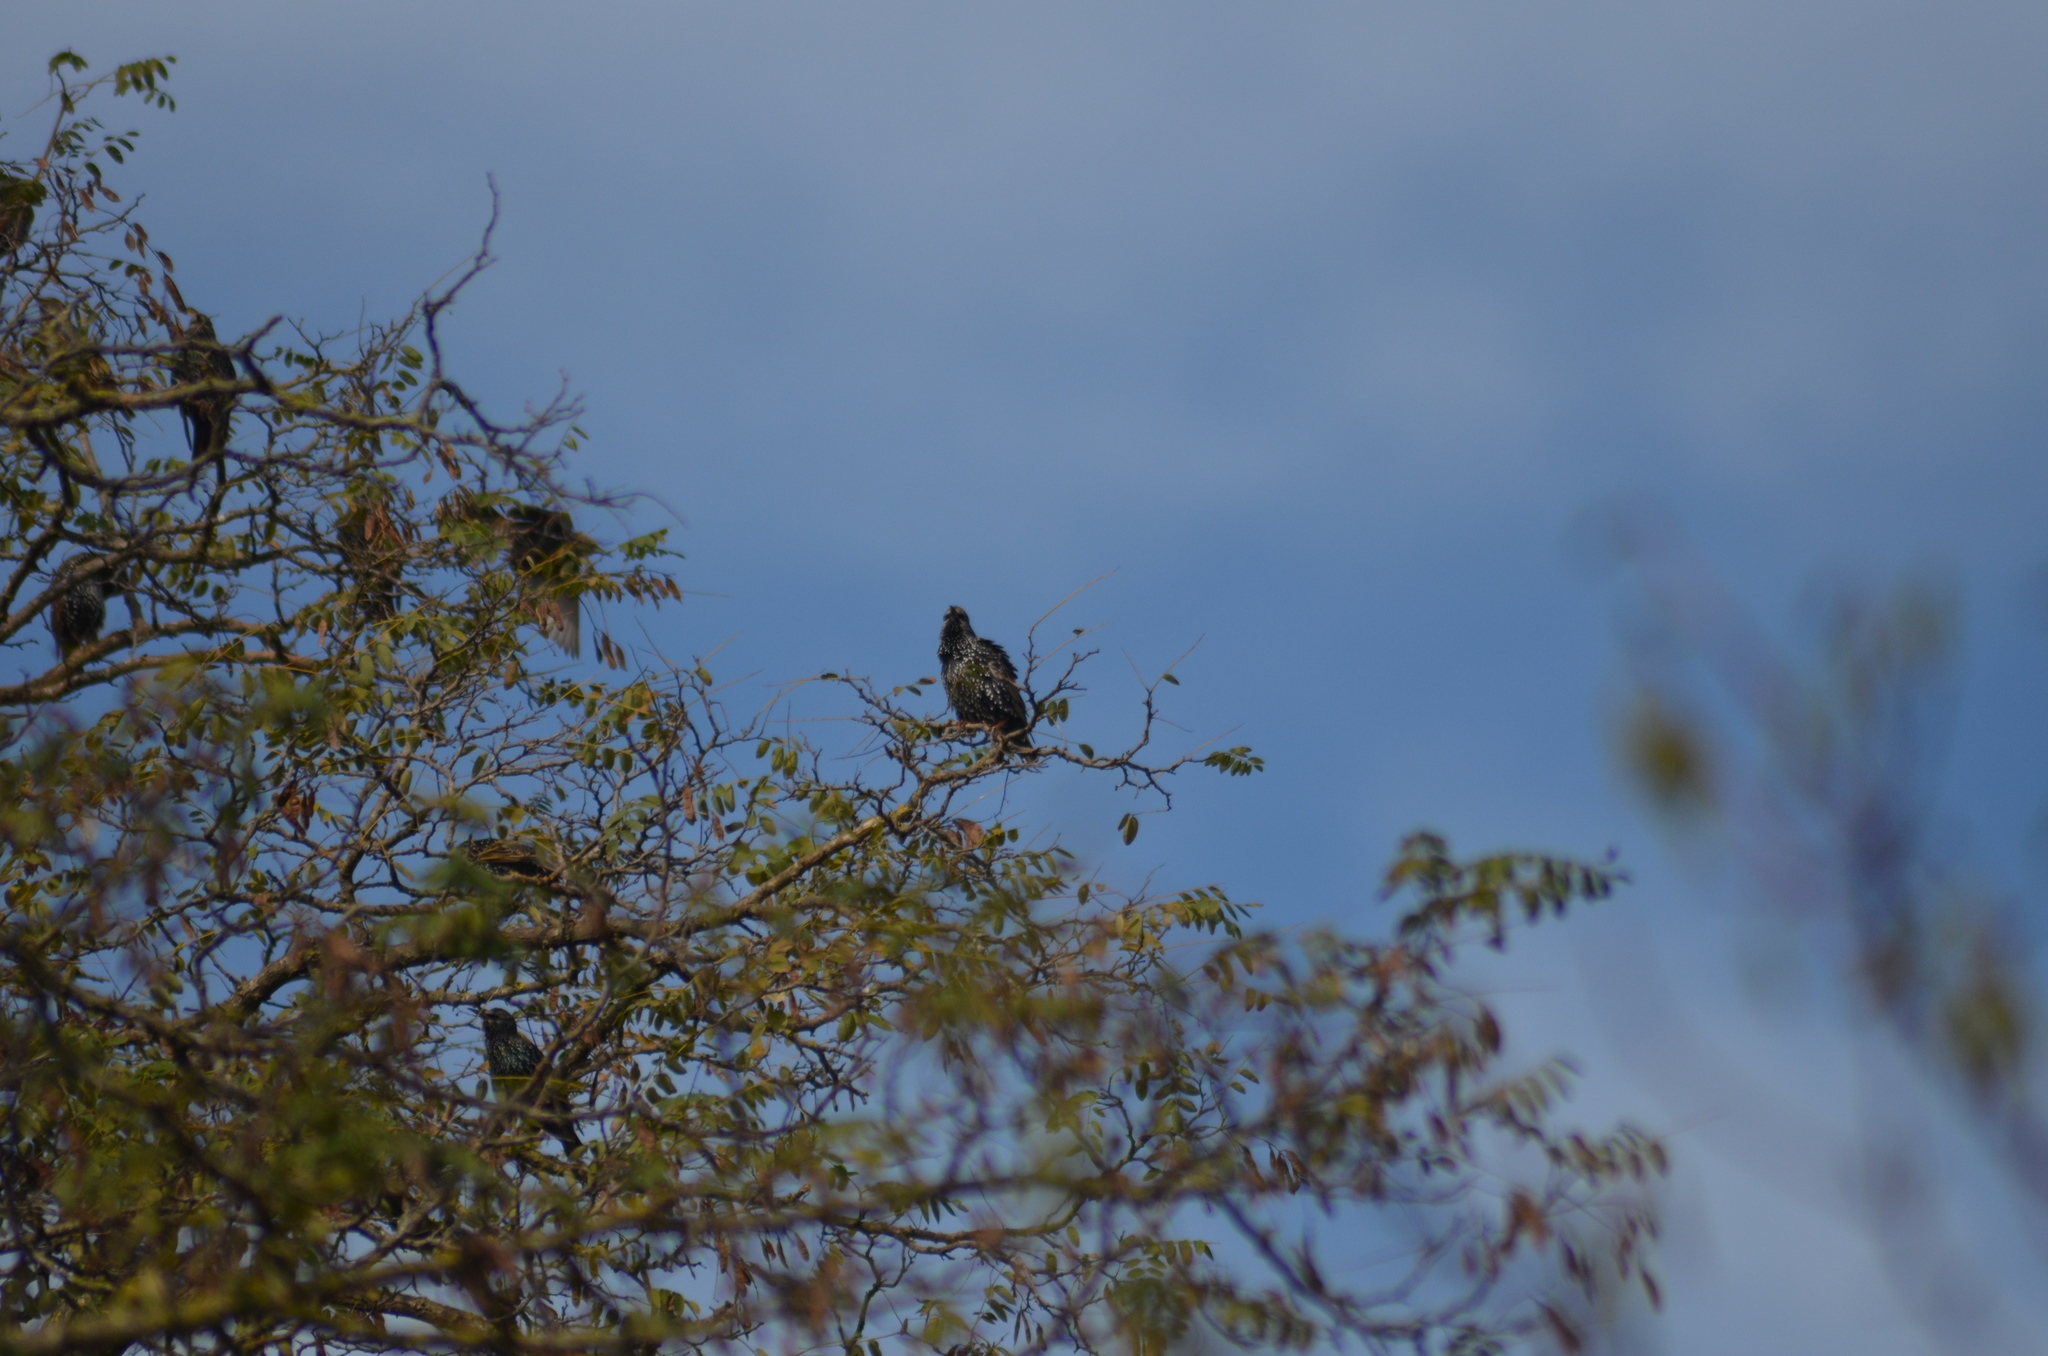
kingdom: Animalia
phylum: Chordata
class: Aves
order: Passeriformes
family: Sturnidae
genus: Sturnus
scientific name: Sturnus vulgaris
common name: Common starling
